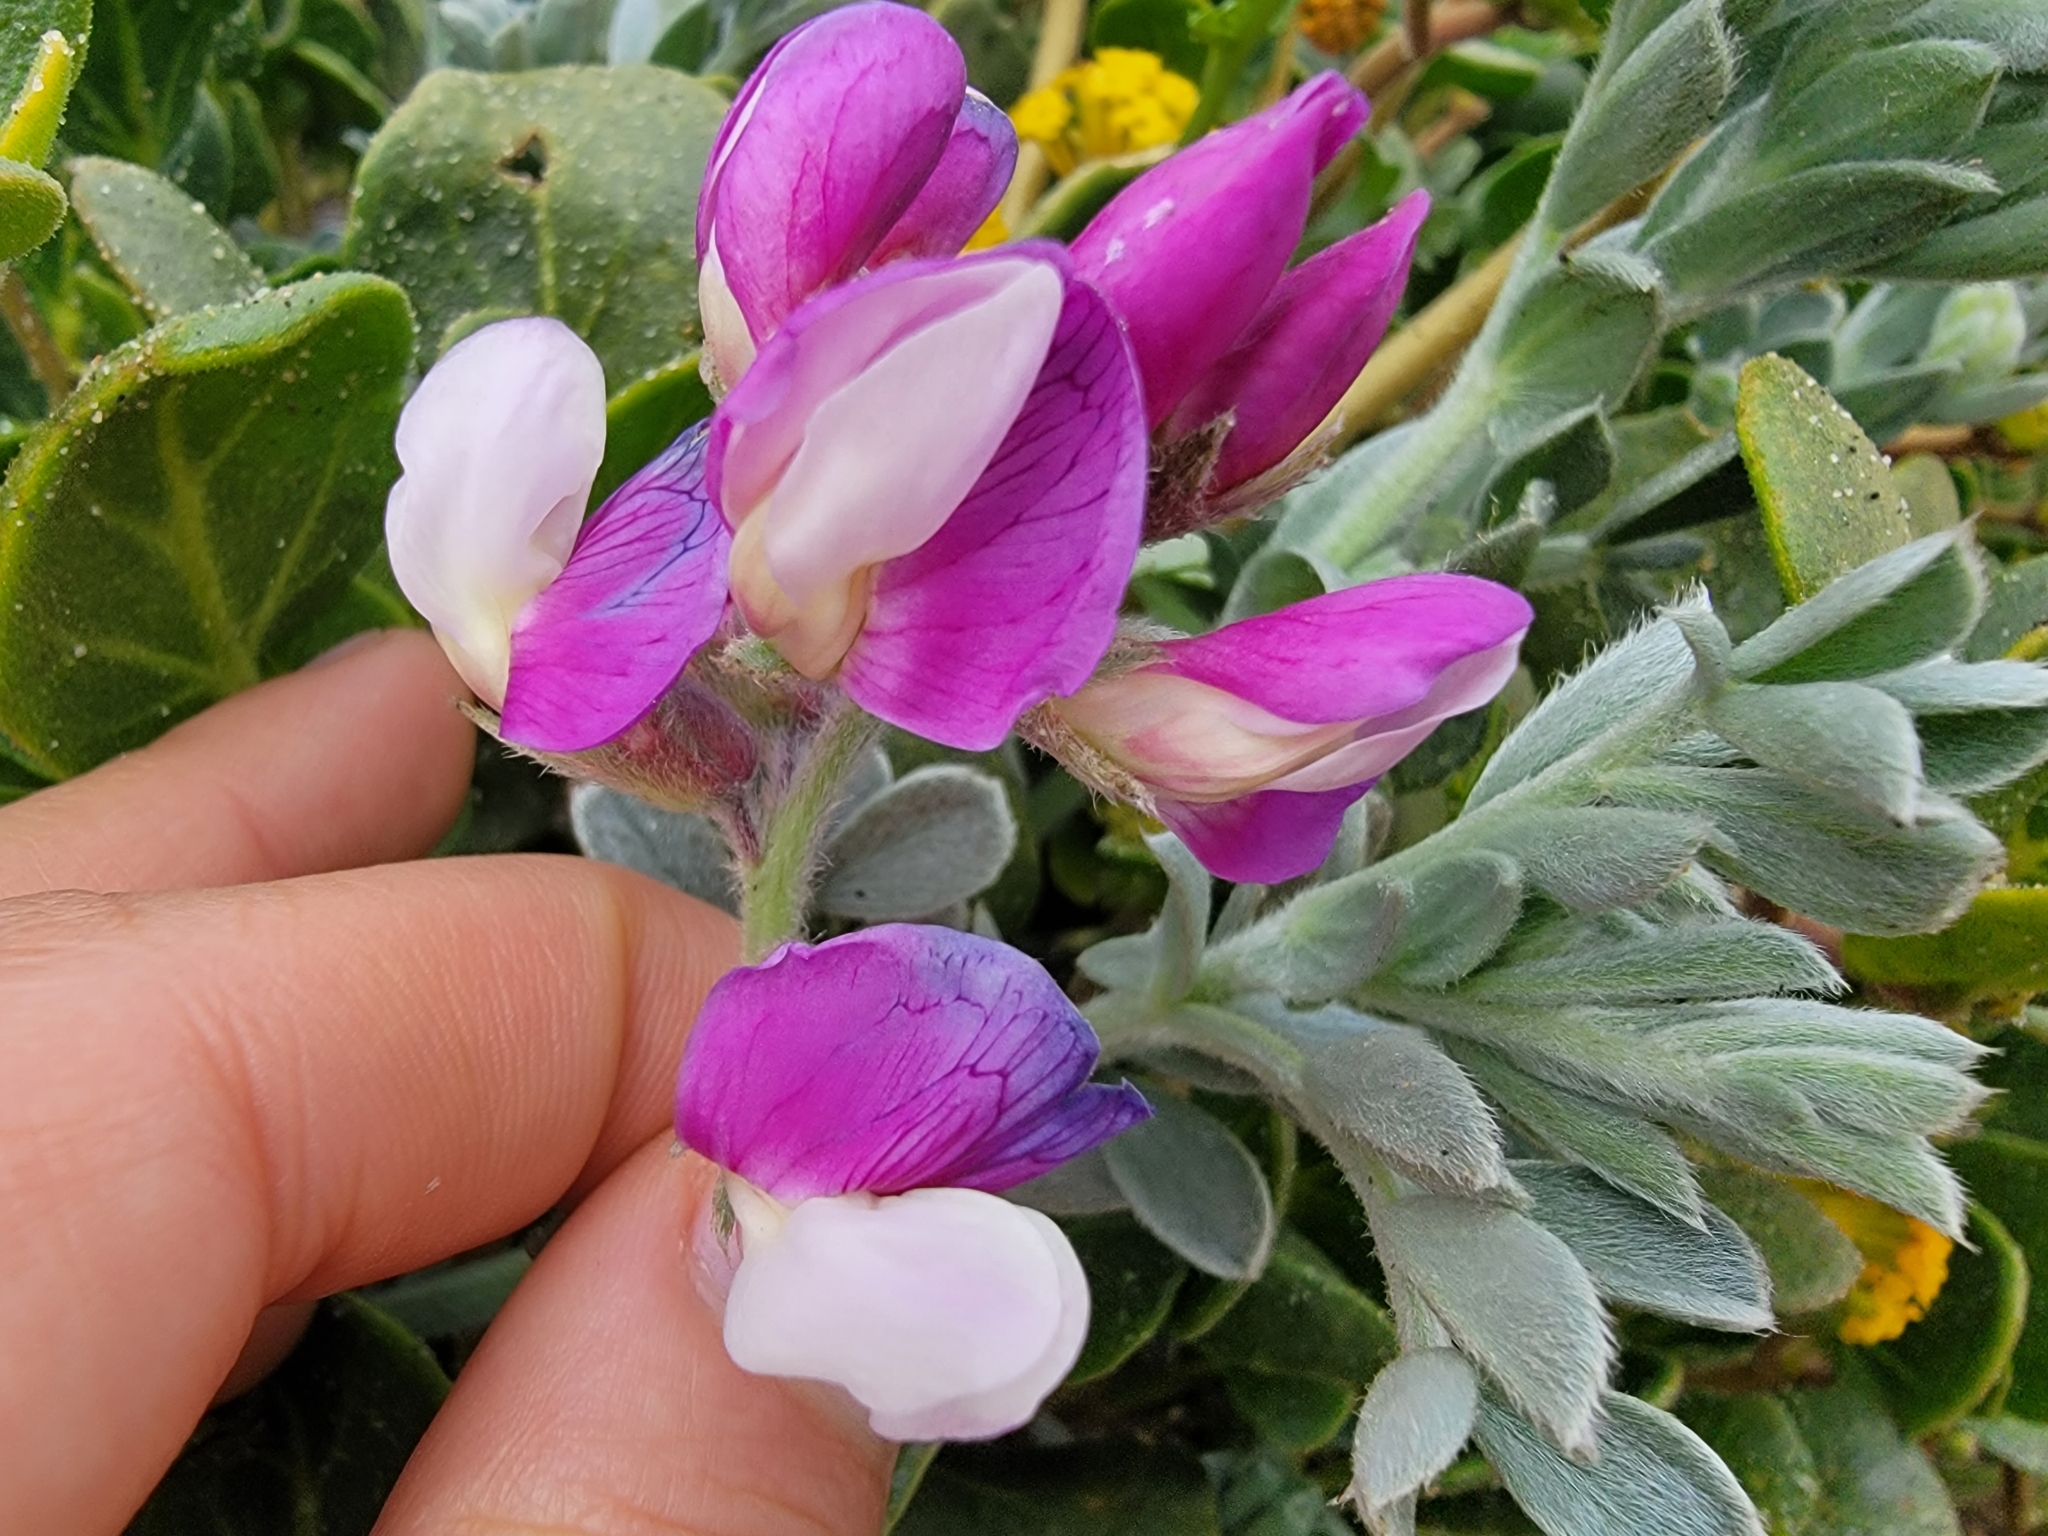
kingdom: Plantae
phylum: Tracheophyta
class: Magnoliopsida
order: Fabales
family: Fabaceae
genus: Lathyrus
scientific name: Lathyrus littoralis
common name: Dune sweet pea
